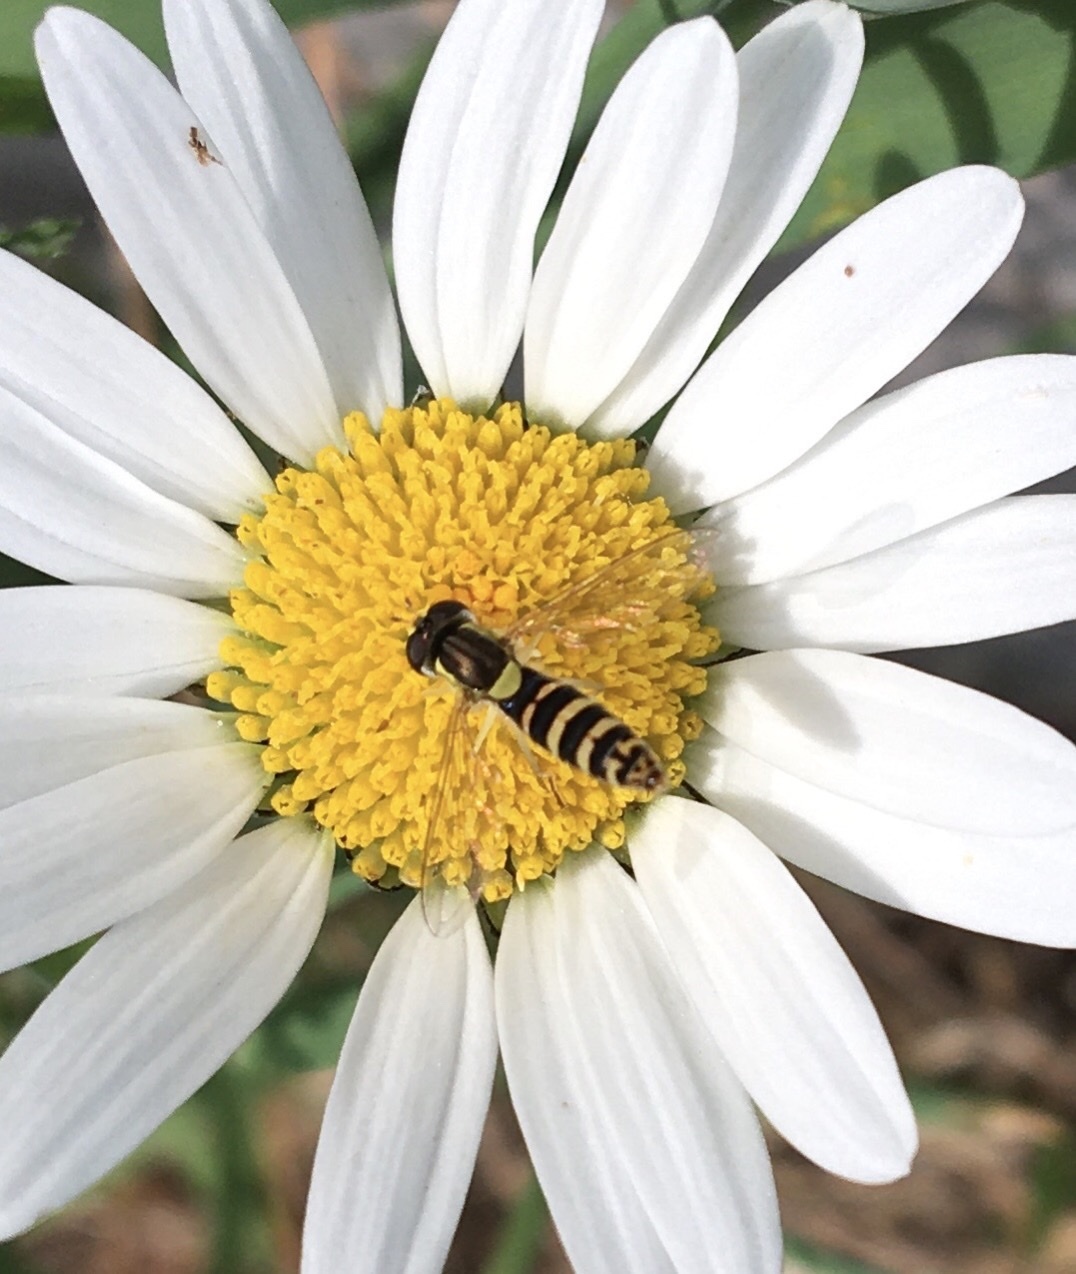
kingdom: Animalia
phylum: Arthropoda
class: Insecta
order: Diptera
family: Syrphidae
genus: Sphaerophoria
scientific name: Sphaerophoria
